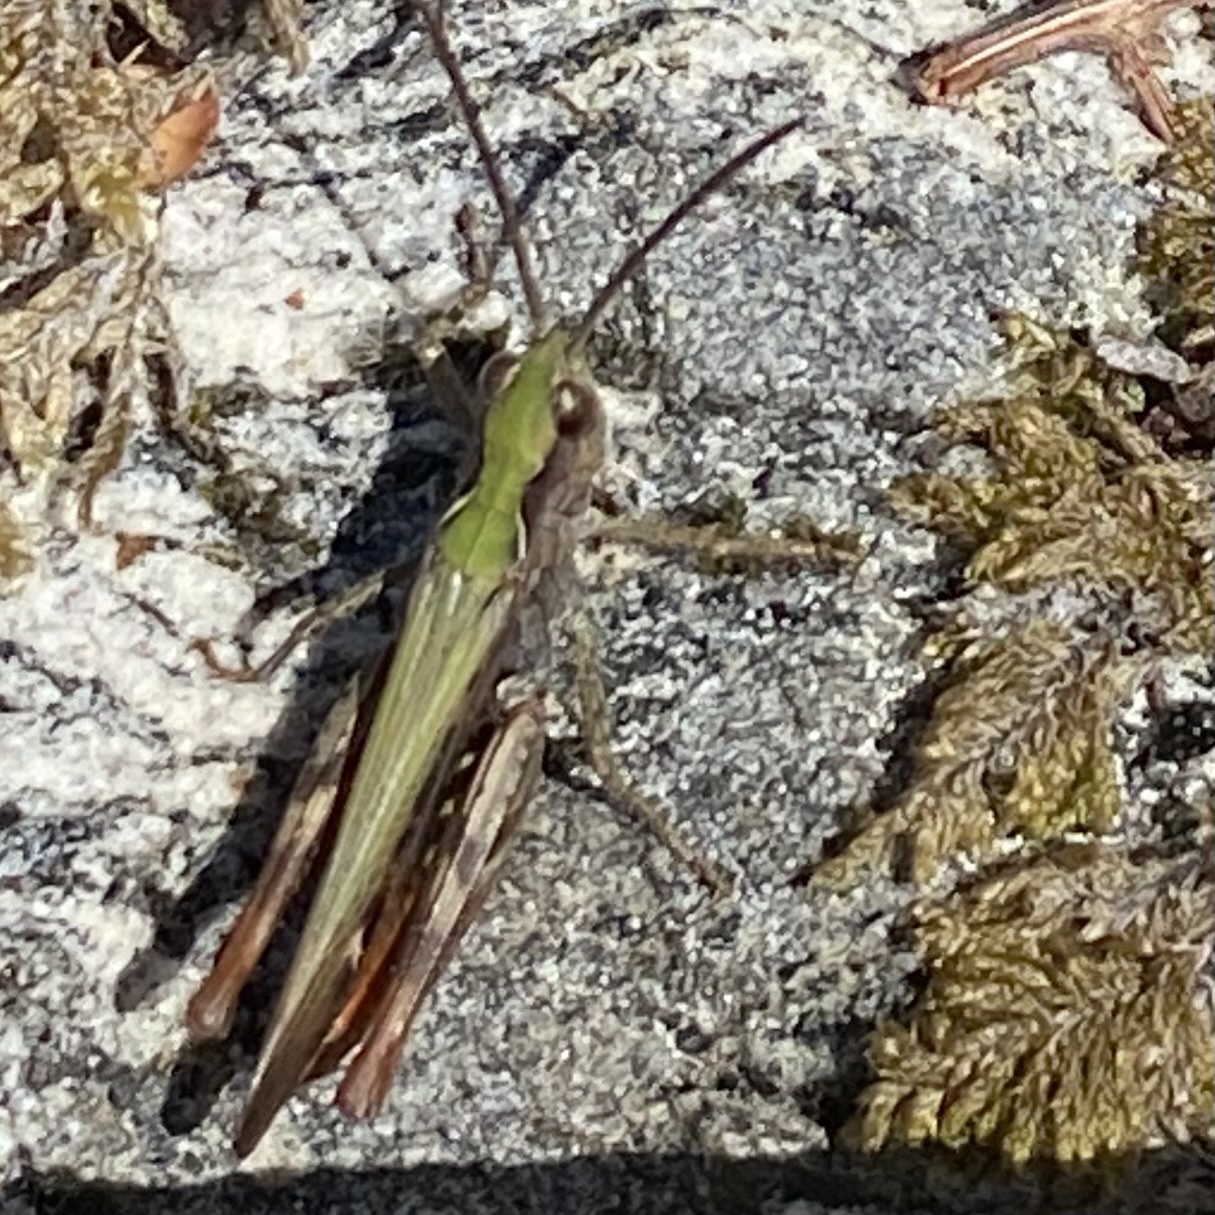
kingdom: Animalia
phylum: Arthropoda
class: Insecta
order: Orthoptera
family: Acrididae
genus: Chorthippus
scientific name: Chorthippus brunneus
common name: Field grasshopper
